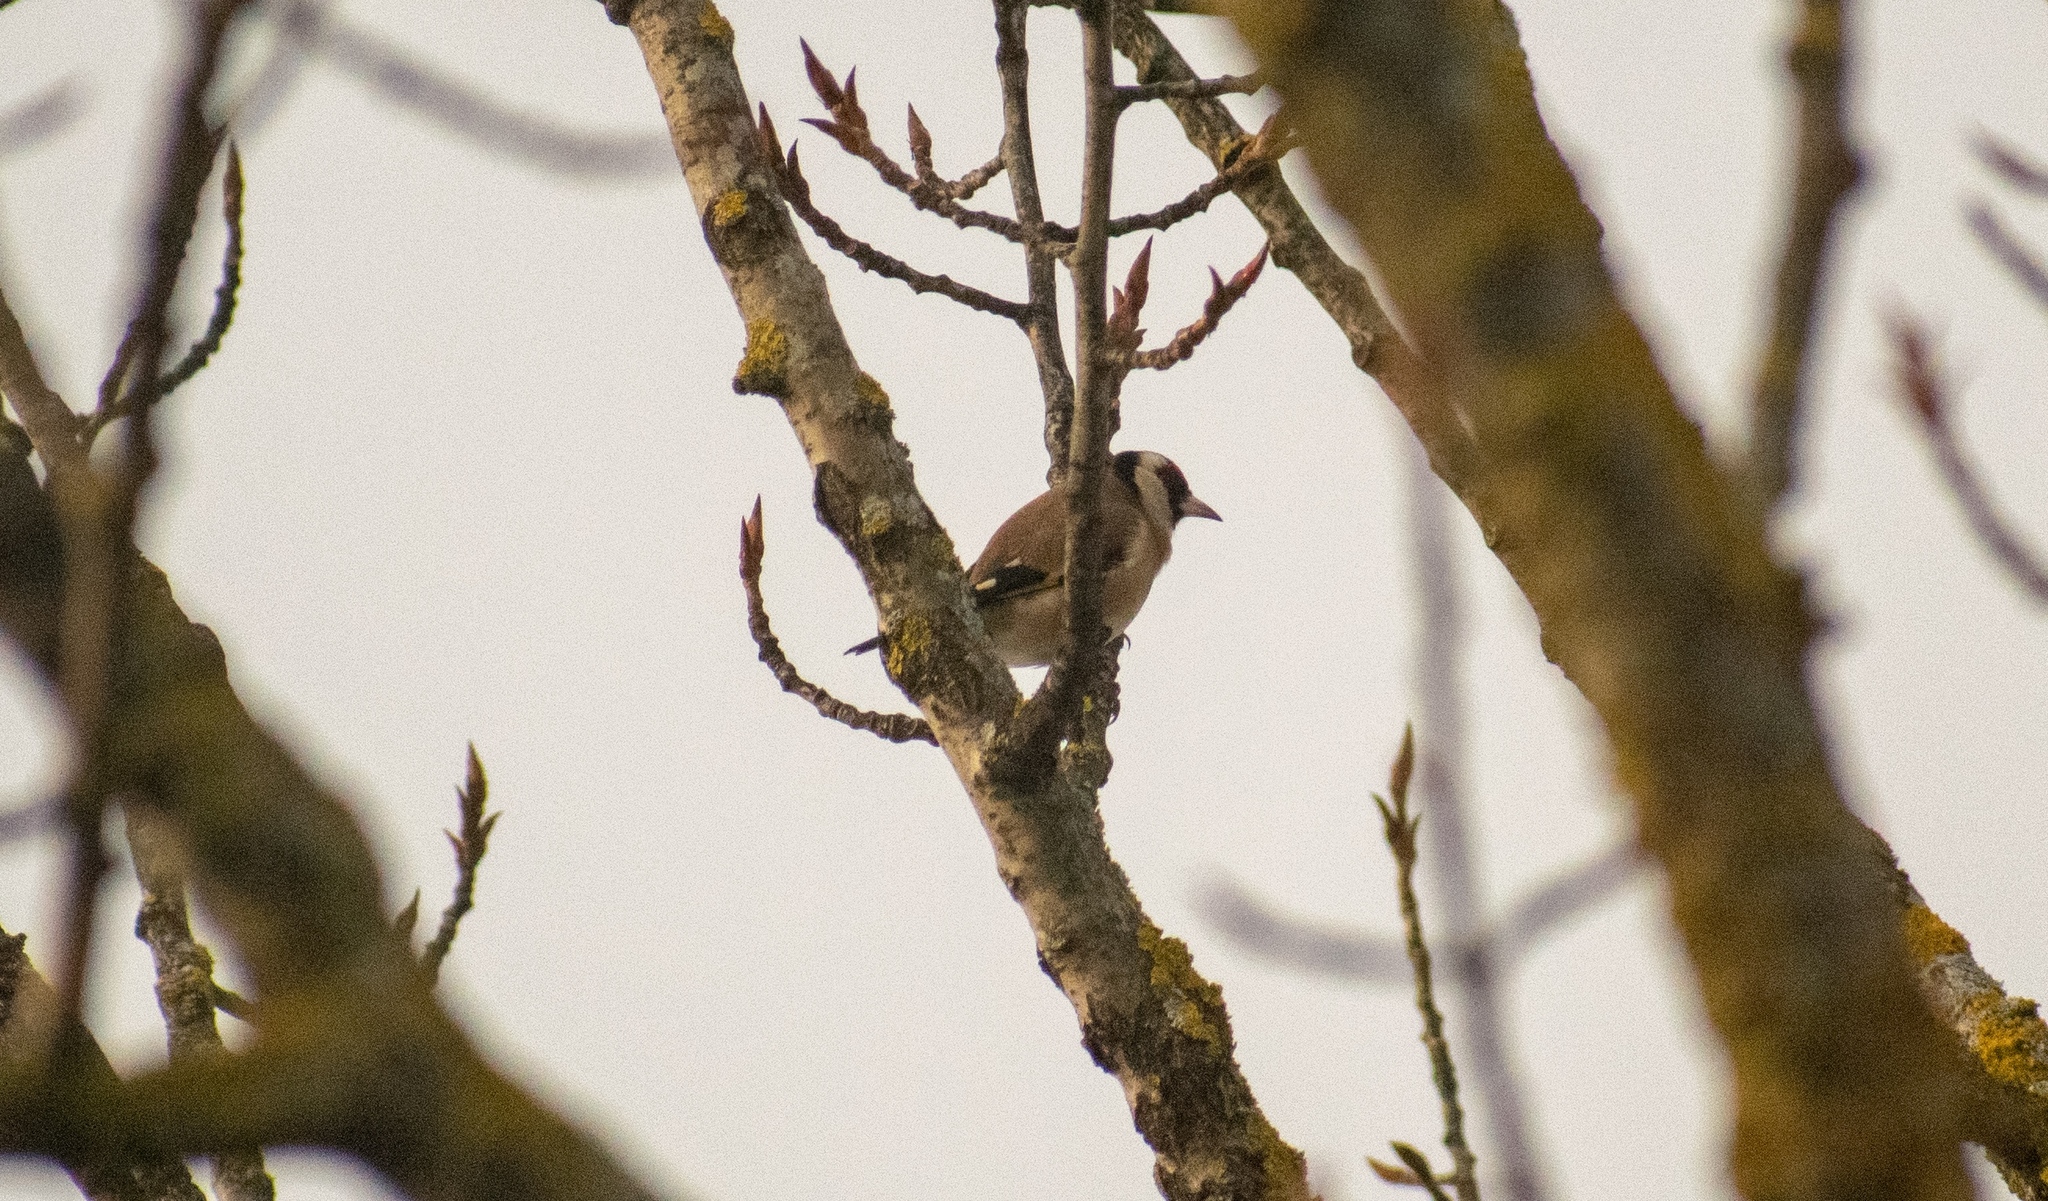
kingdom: Animalia
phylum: Chordata
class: Aves
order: Passeriformes
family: Fringillidae
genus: Carduelis
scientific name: Carduelis carduelis
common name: European goldfinch
